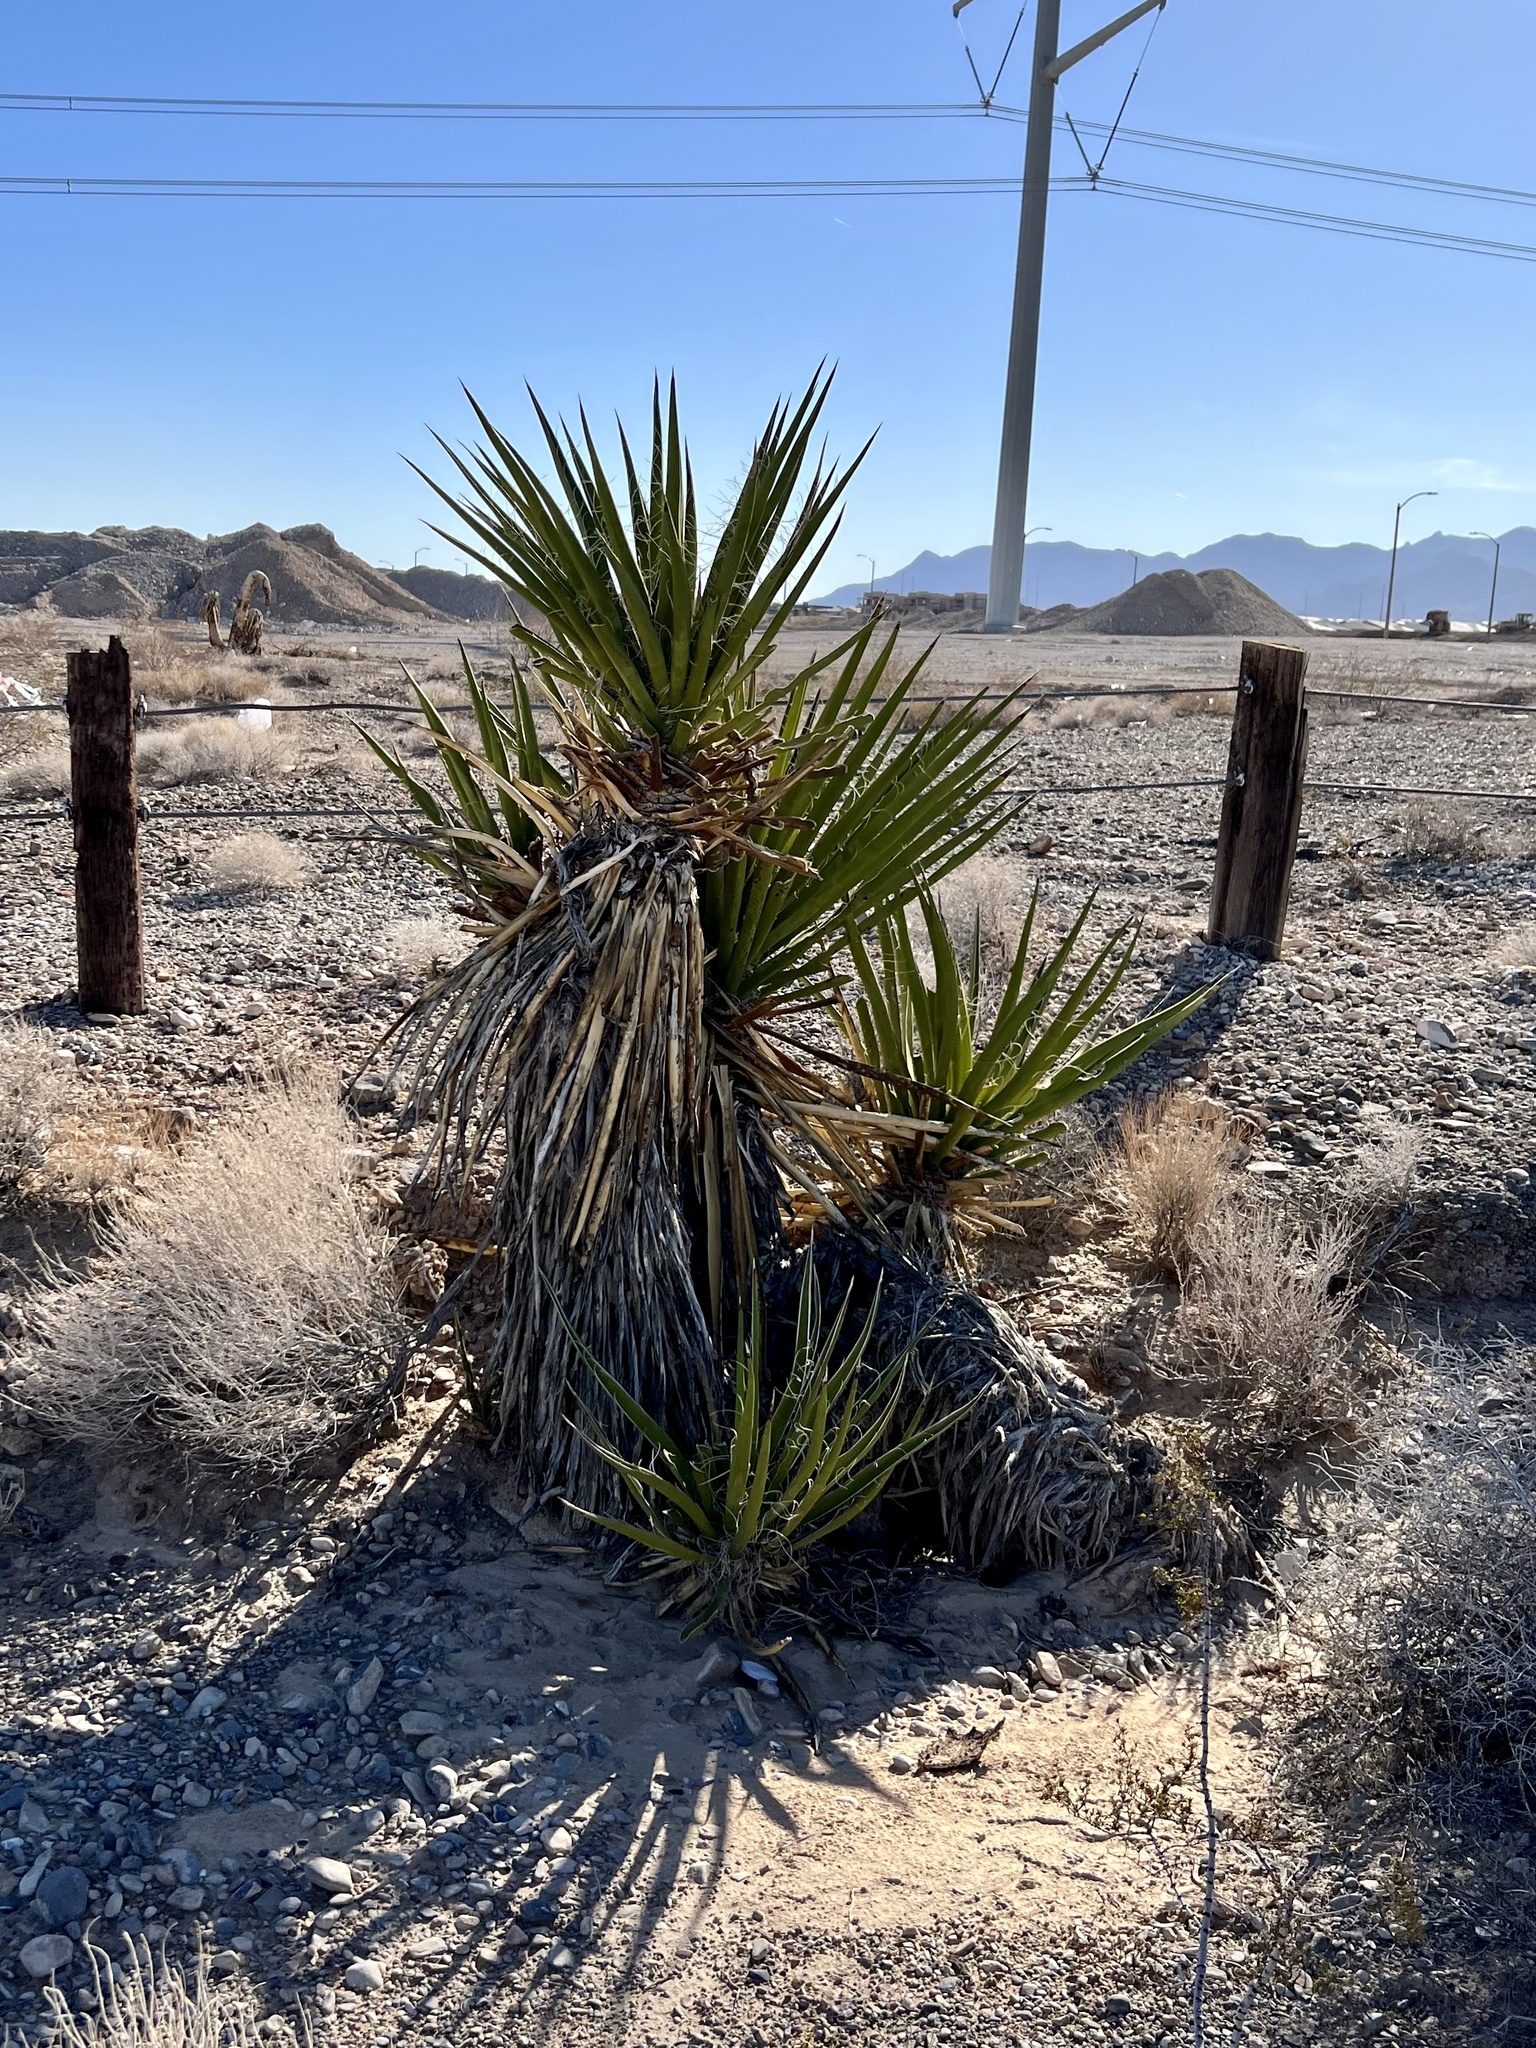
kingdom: Plantae
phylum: Tracheophyta
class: Liliopsida
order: Asparagales
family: Asparagaceae
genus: Yucca
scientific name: Yucca schidigera
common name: Mojave yucca
